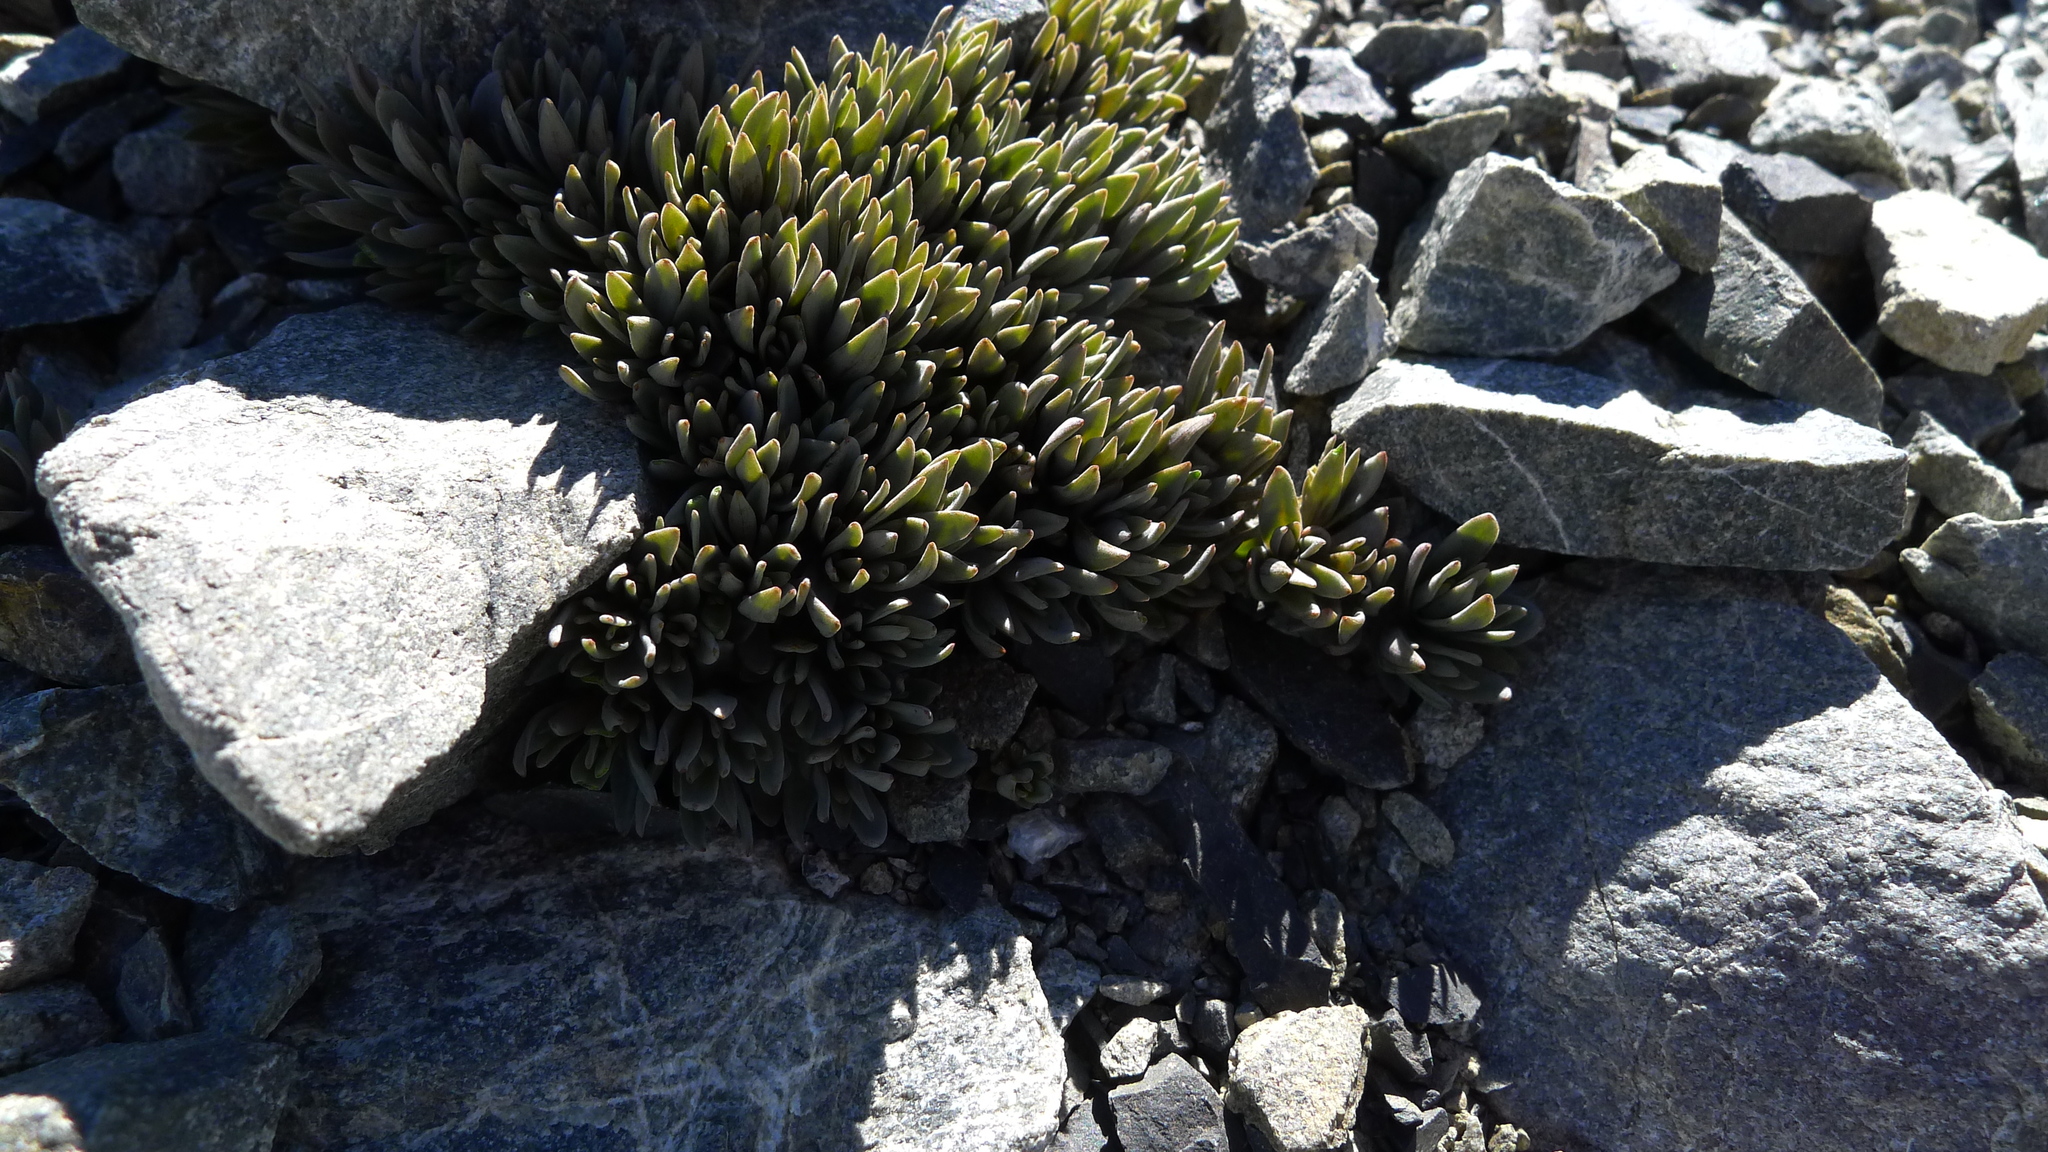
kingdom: Plantae
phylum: Tracheophyta
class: Magnoliopsida
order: Caryophyllales
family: Caryophyllaceae
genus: Stellaria
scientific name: Stellaria roughii
